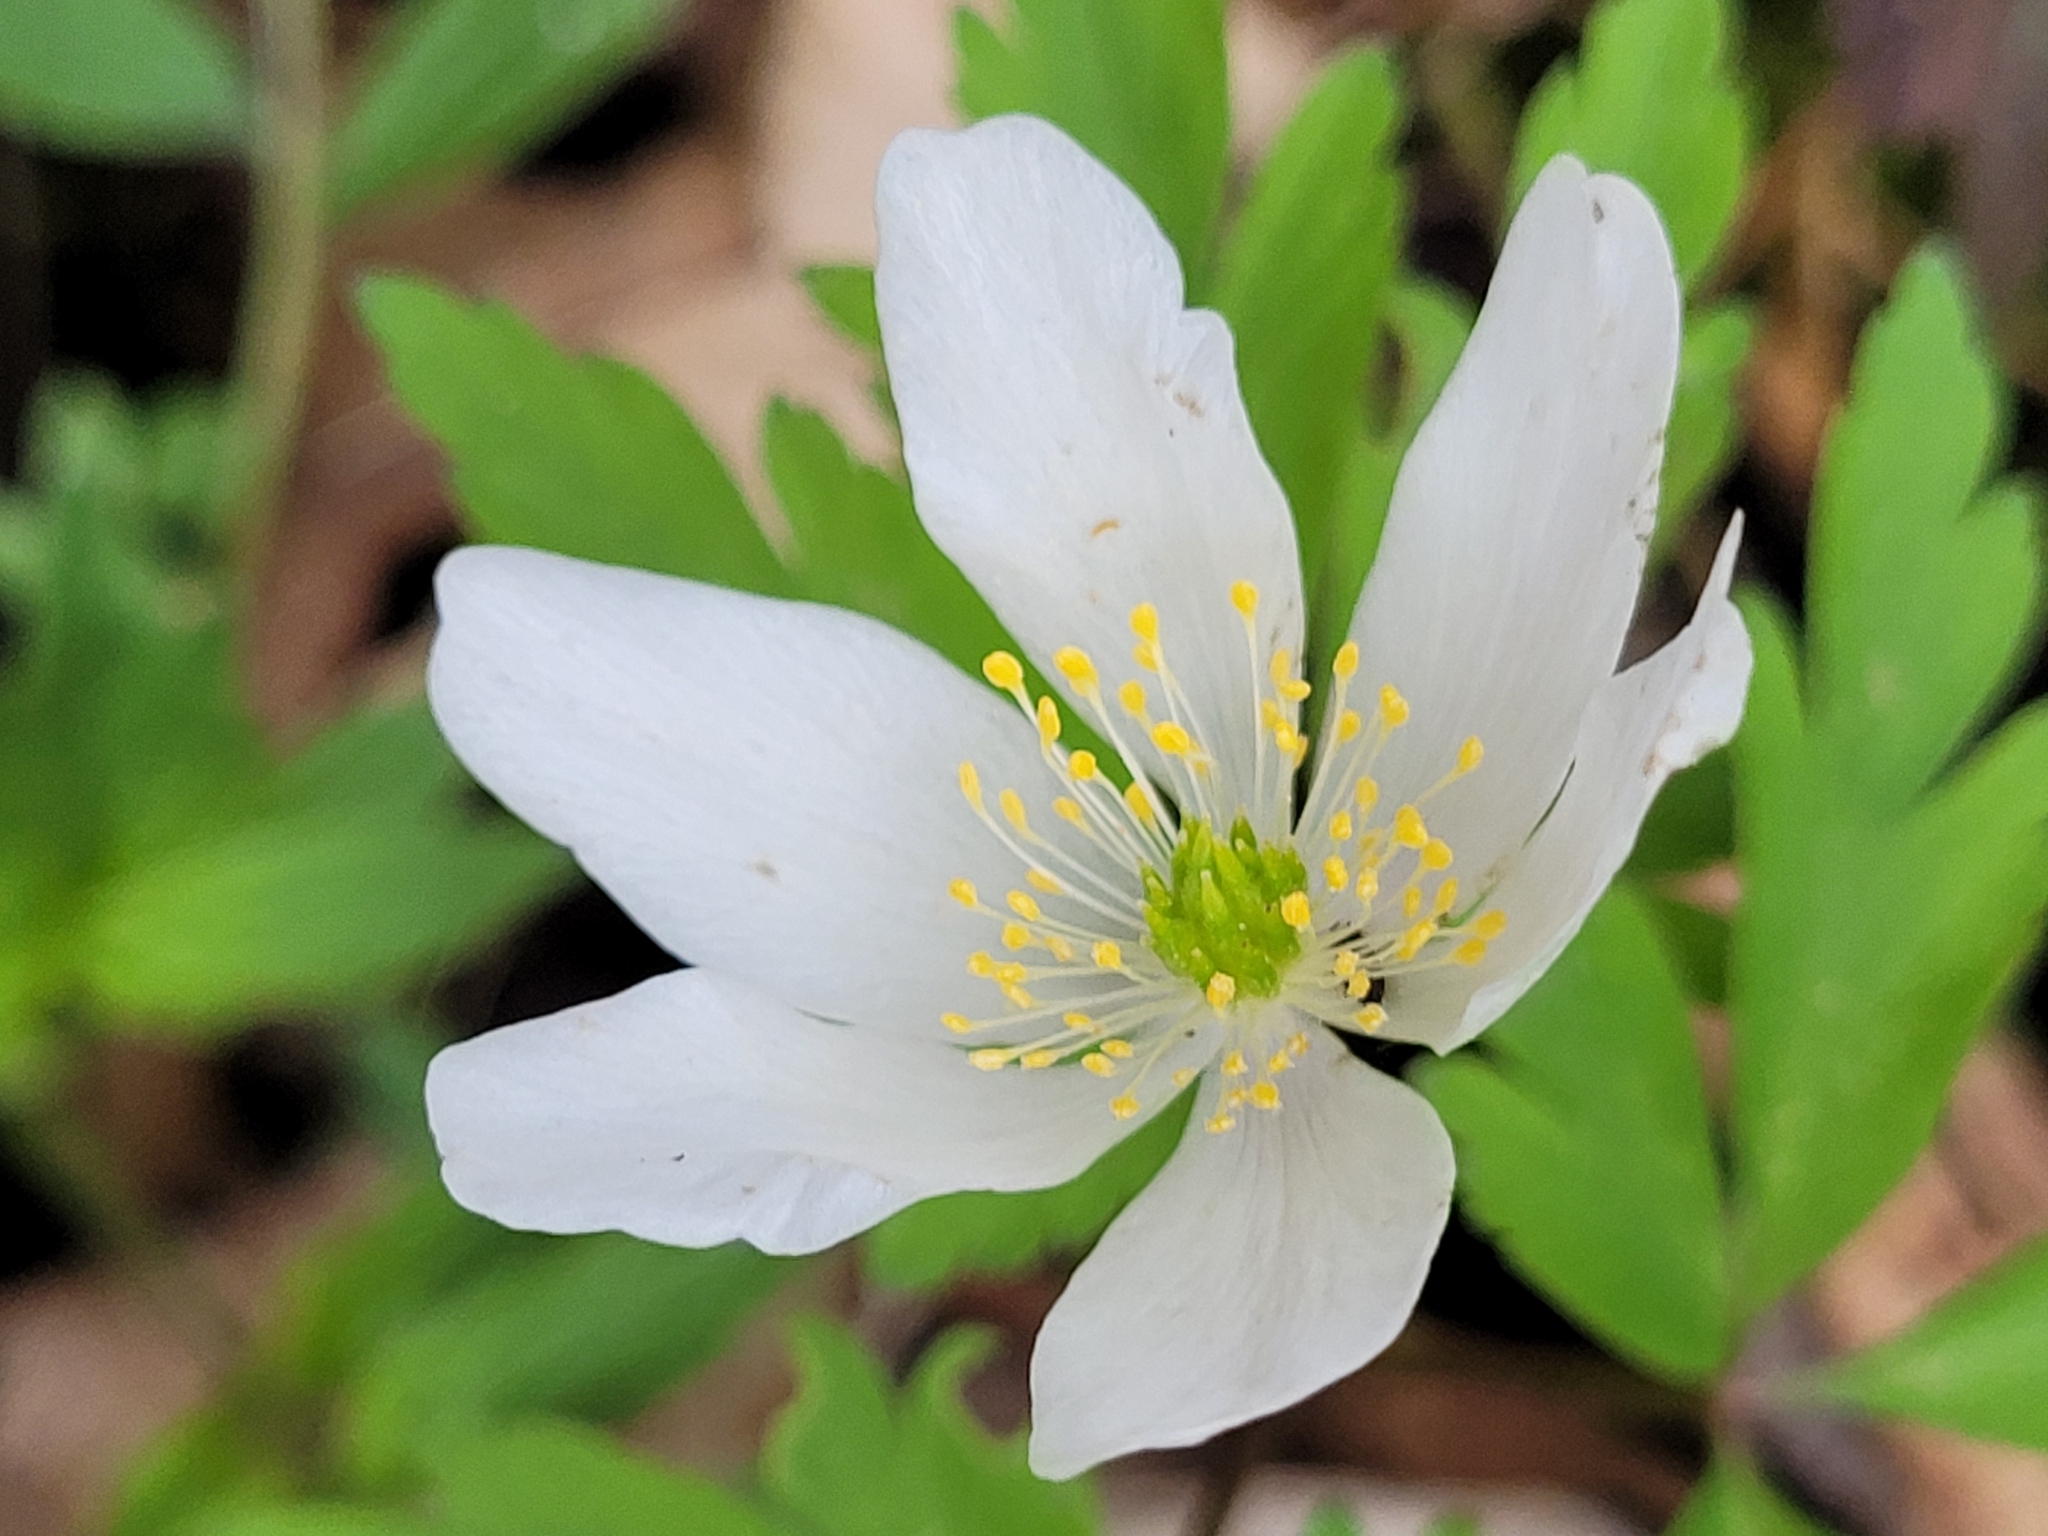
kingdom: Plantae
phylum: Tracheophyta
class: Magnoliopsida
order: Ranunculales
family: Ranunculaceae
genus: Anemone
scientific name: Anemone nemorosa
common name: Wood anemone
